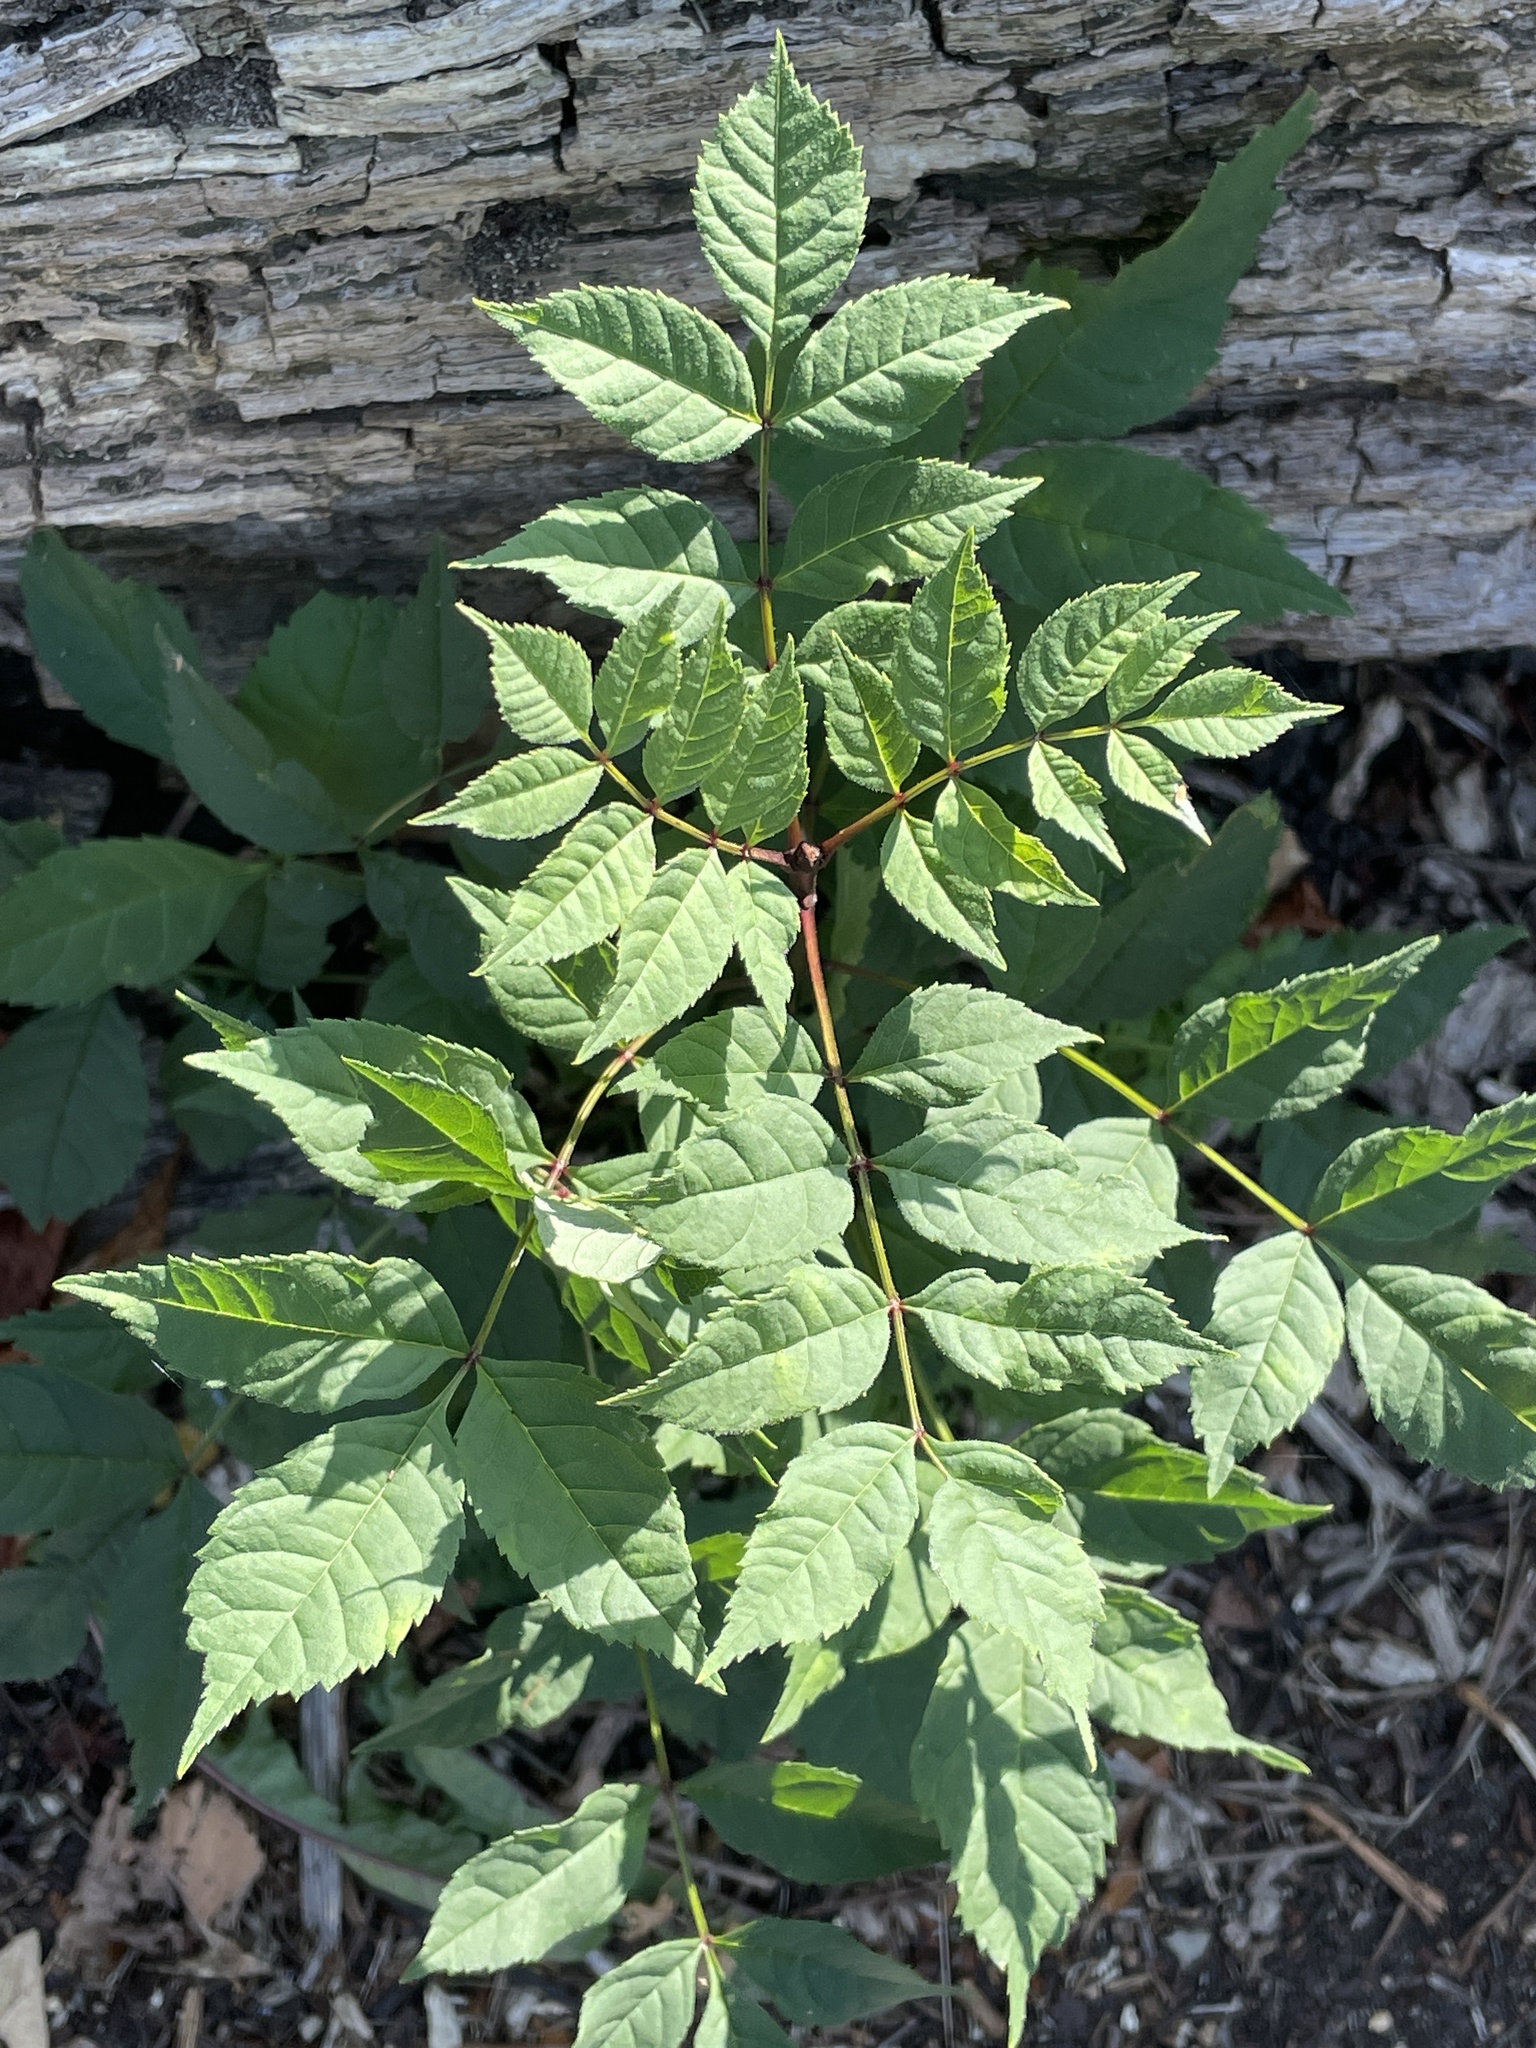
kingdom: Plantae
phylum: Tracheophyta
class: Magnoliopsida
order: Lamiales
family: Oleaceae
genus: Fraxinus
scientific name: Fraxinus excelsior
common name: European ash
